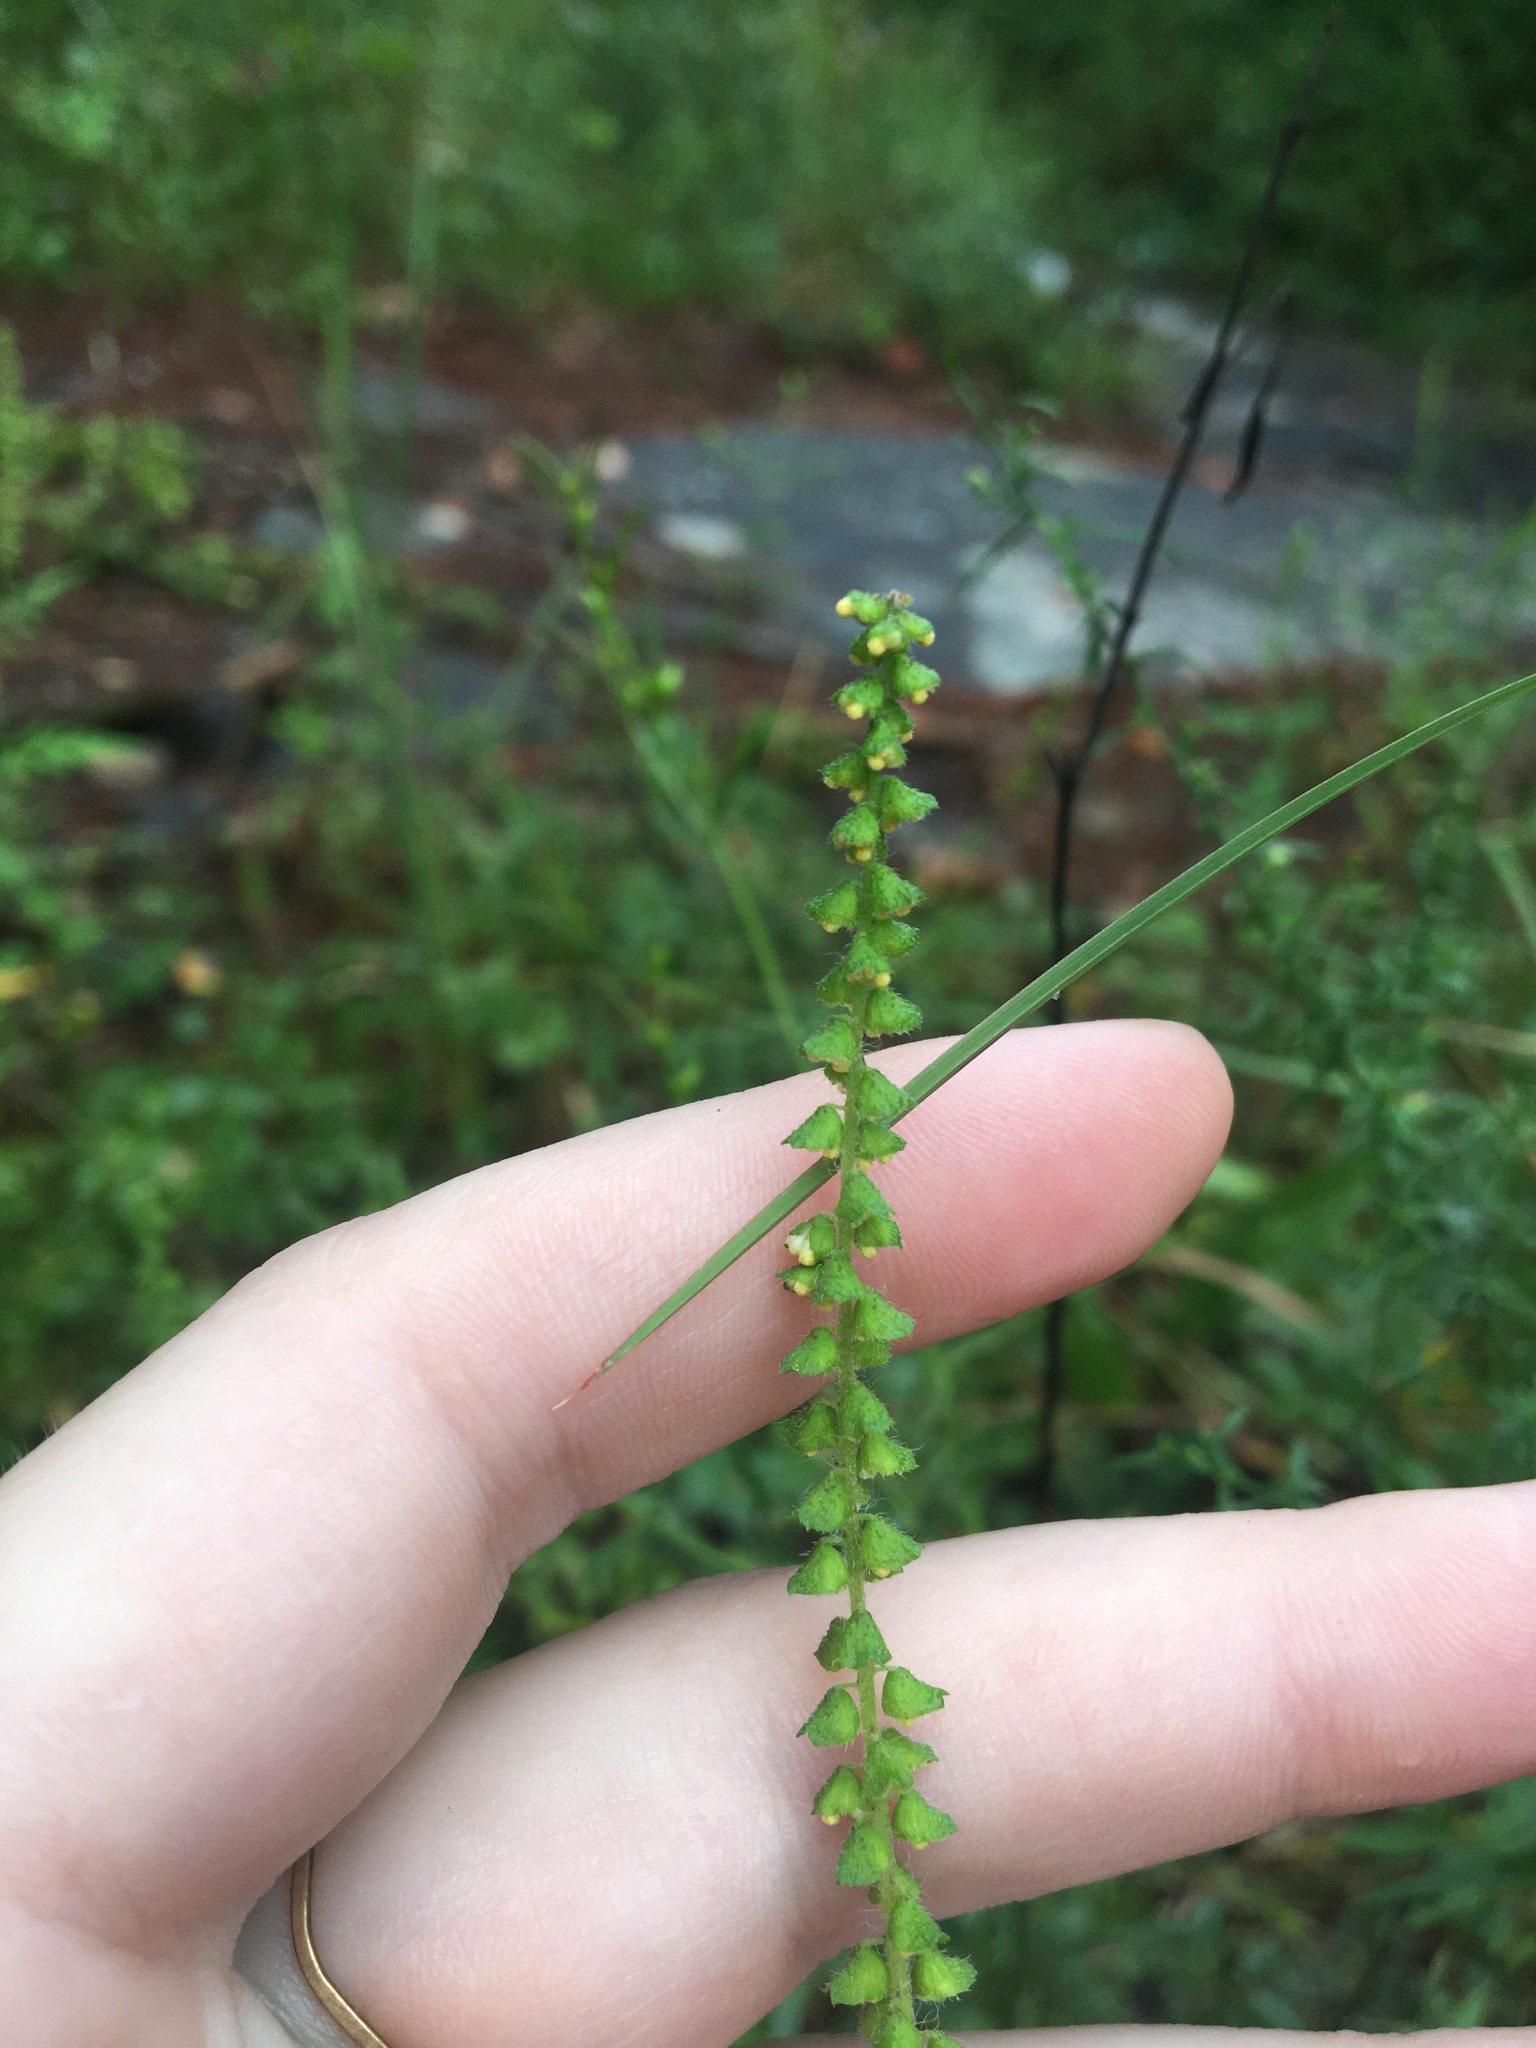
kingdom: Plantae
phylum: Tracheophyta
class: Magnoliopsida
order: Asterales
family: Asteraceae
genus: Ambrosia
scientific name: Ambrosia artemisiifolia
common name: Annual ragweed
